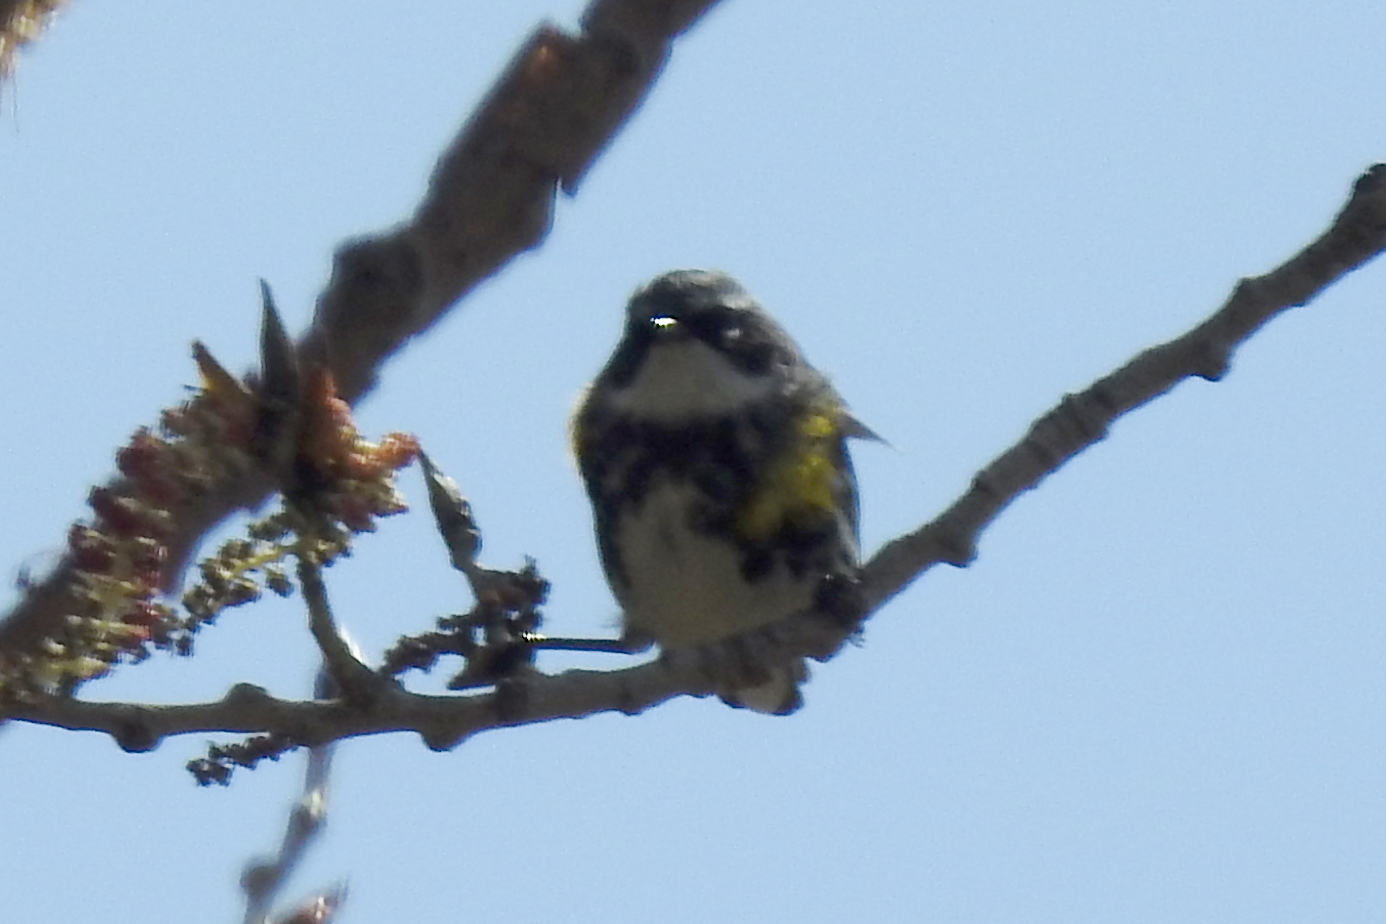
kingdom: Animalia
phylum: Chordata
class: Aves
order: Passeriformes
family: Parulidae
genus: Setophaga
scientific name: Setophaga coronata
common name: Myrtle warbler
